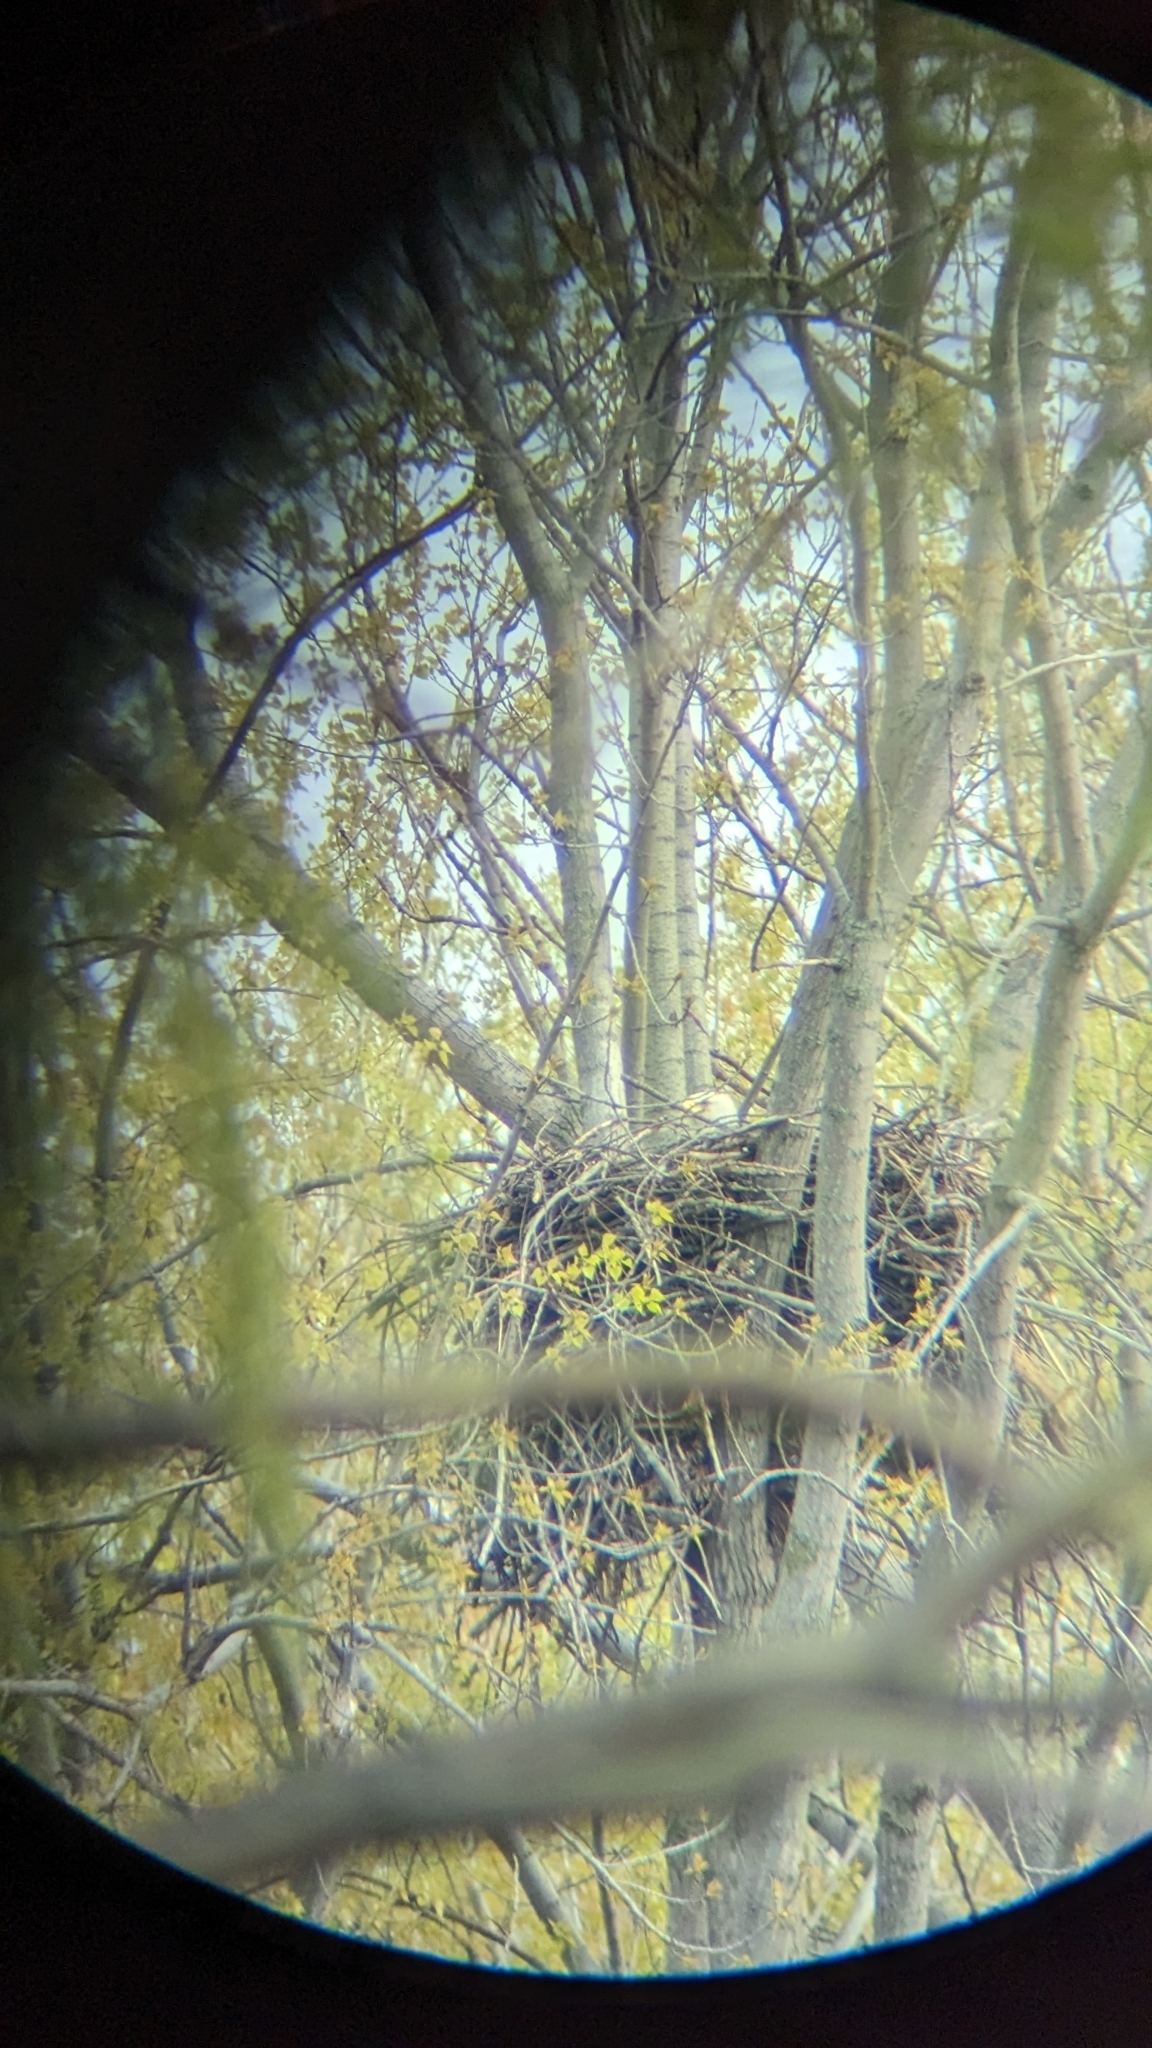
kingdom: Animalia
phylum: Chordata
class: Aves
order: Accipitriformes
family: Accipitridae
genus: Haliaeetus
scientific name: Haliaeetus leucocephalus
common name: Bald eagle
